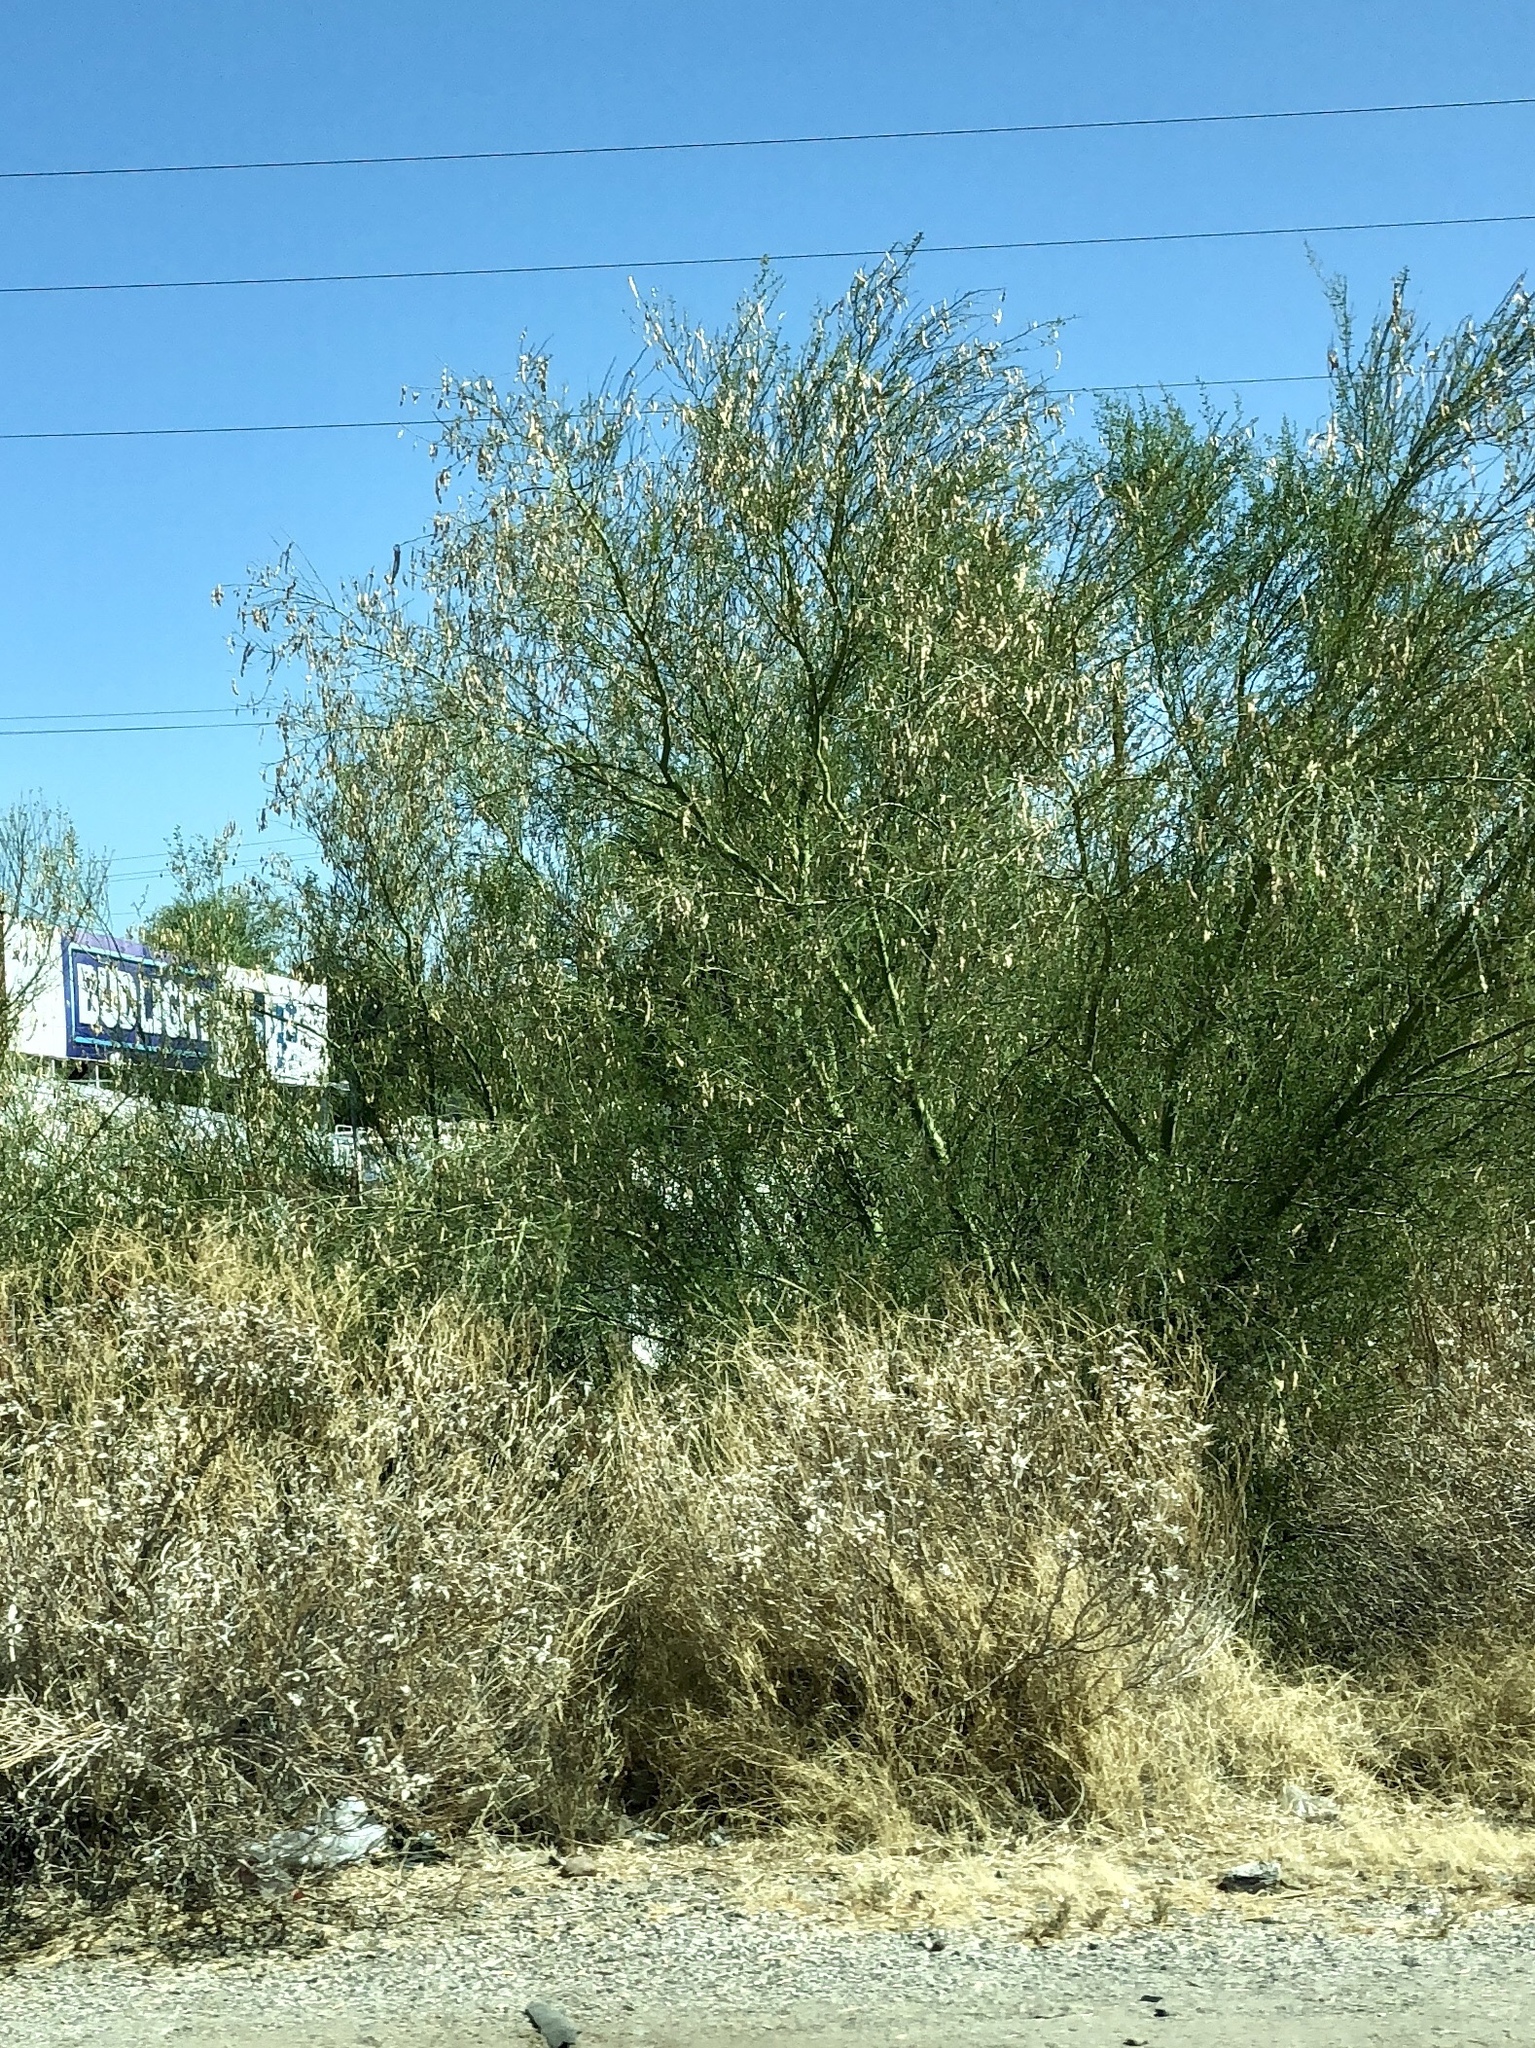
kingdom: Plantae
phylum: Tracheophyta
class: Magnoliopsida
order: Fabales
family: Fabaceae
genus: Parkinsonia
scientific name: Parkinsonia microphylla
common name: Yellow paloverde
